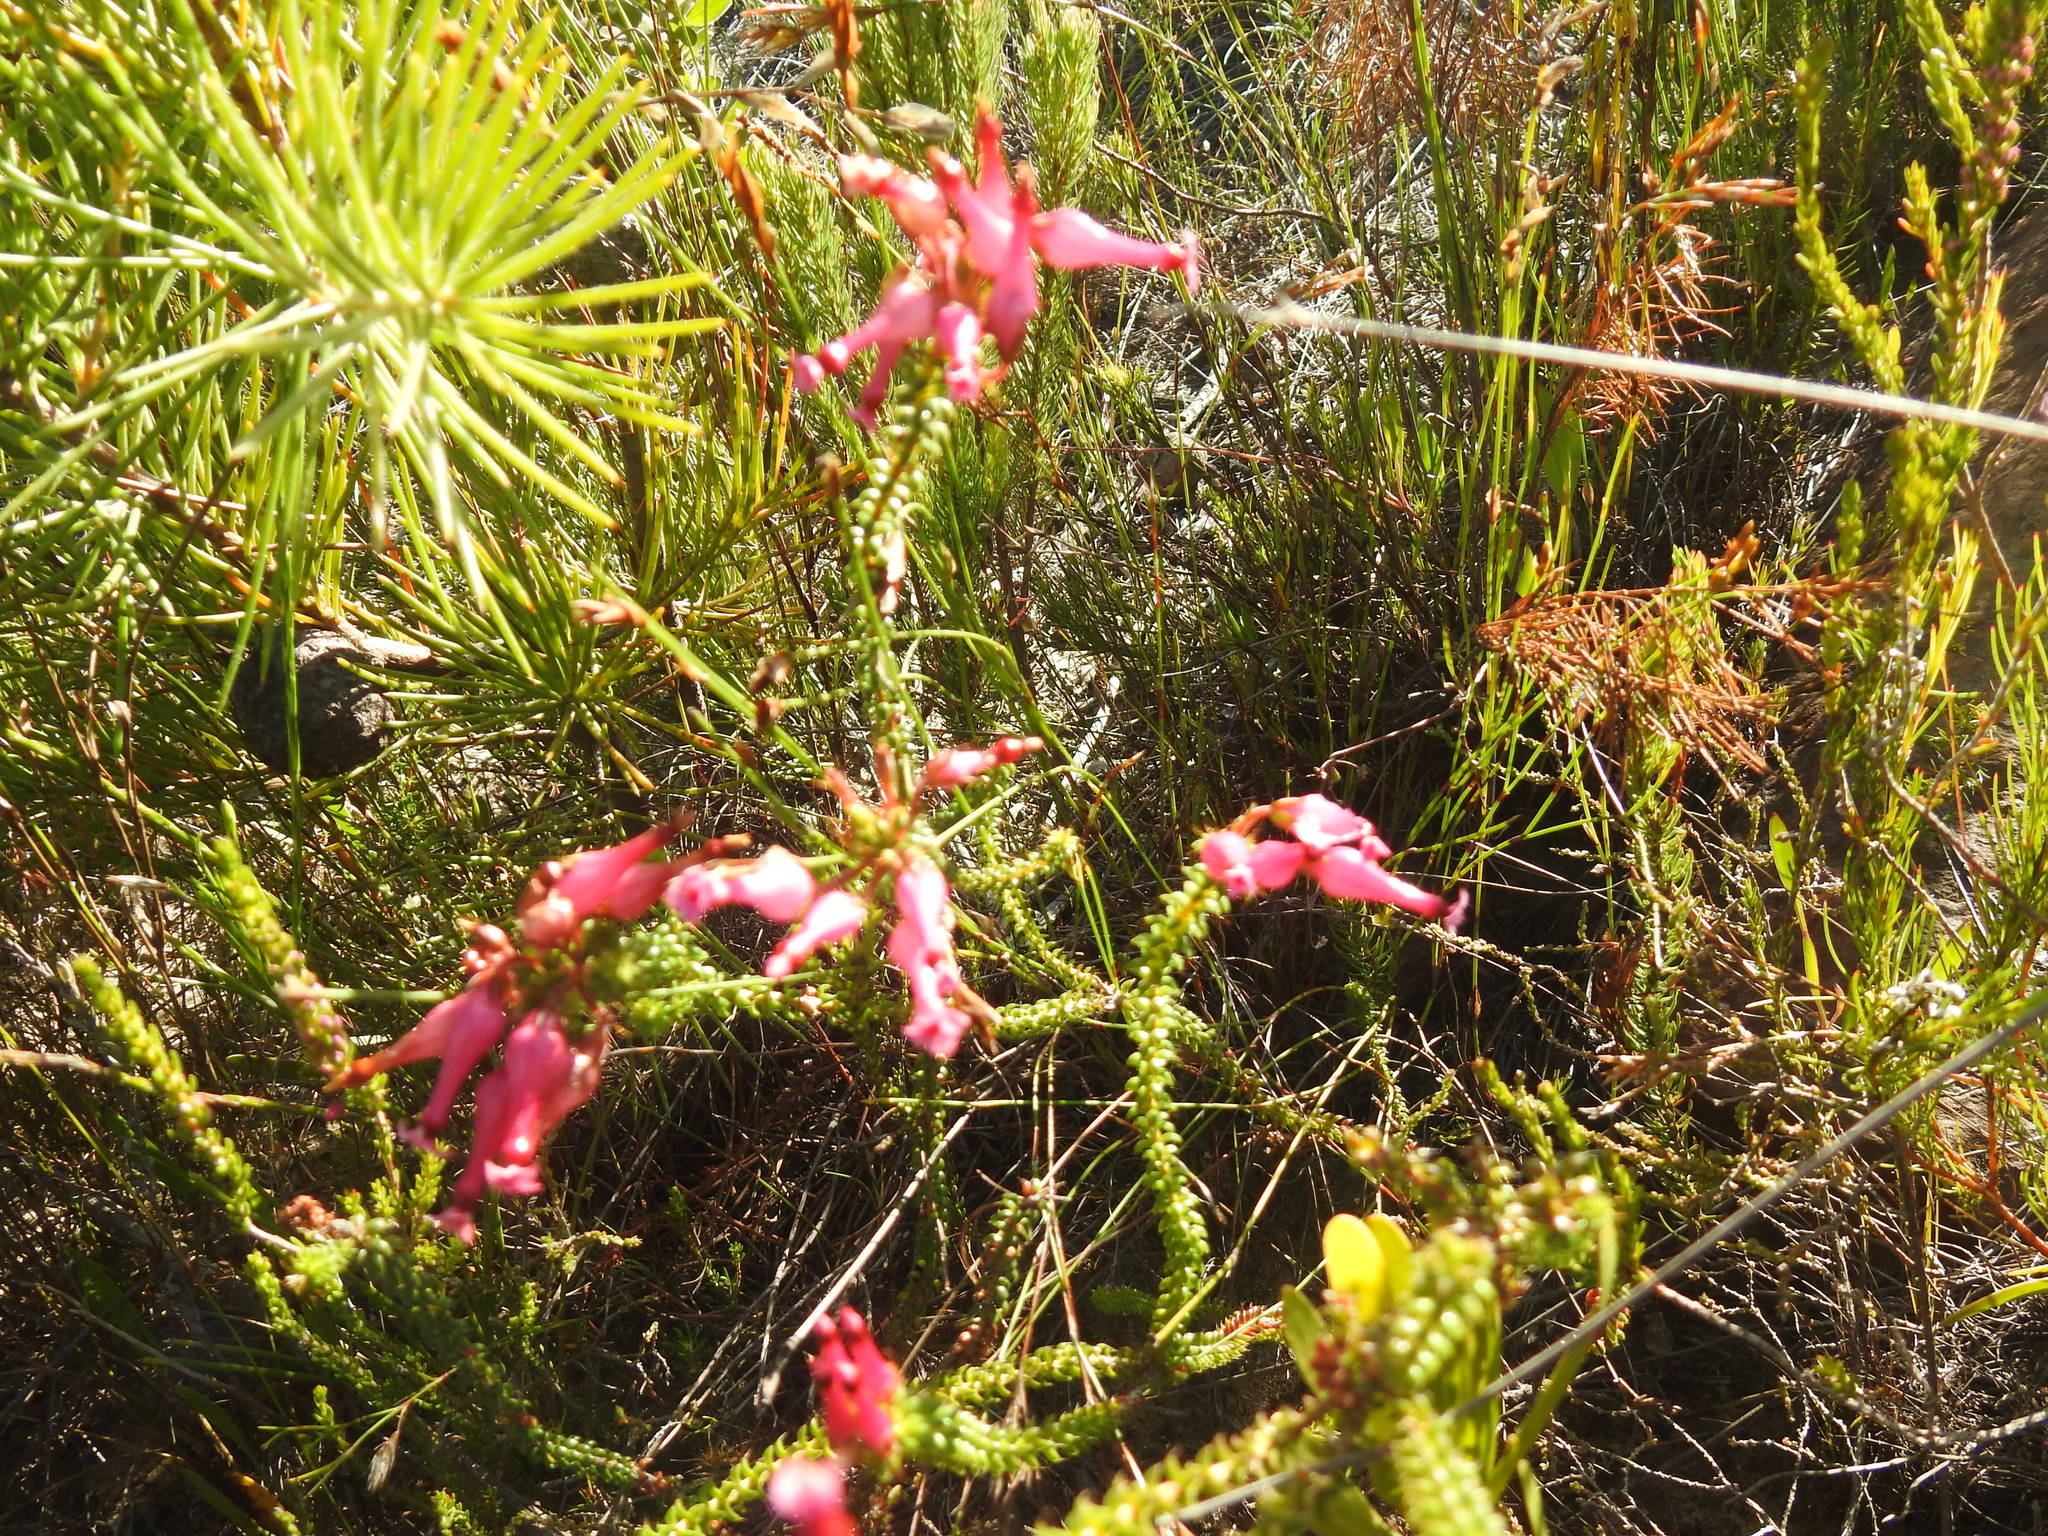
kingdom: Plantae
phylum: Tracheophyta
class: Magnoliopsida
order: Ericales
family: Ericaceae
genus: Erica
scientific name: Erica retorta
